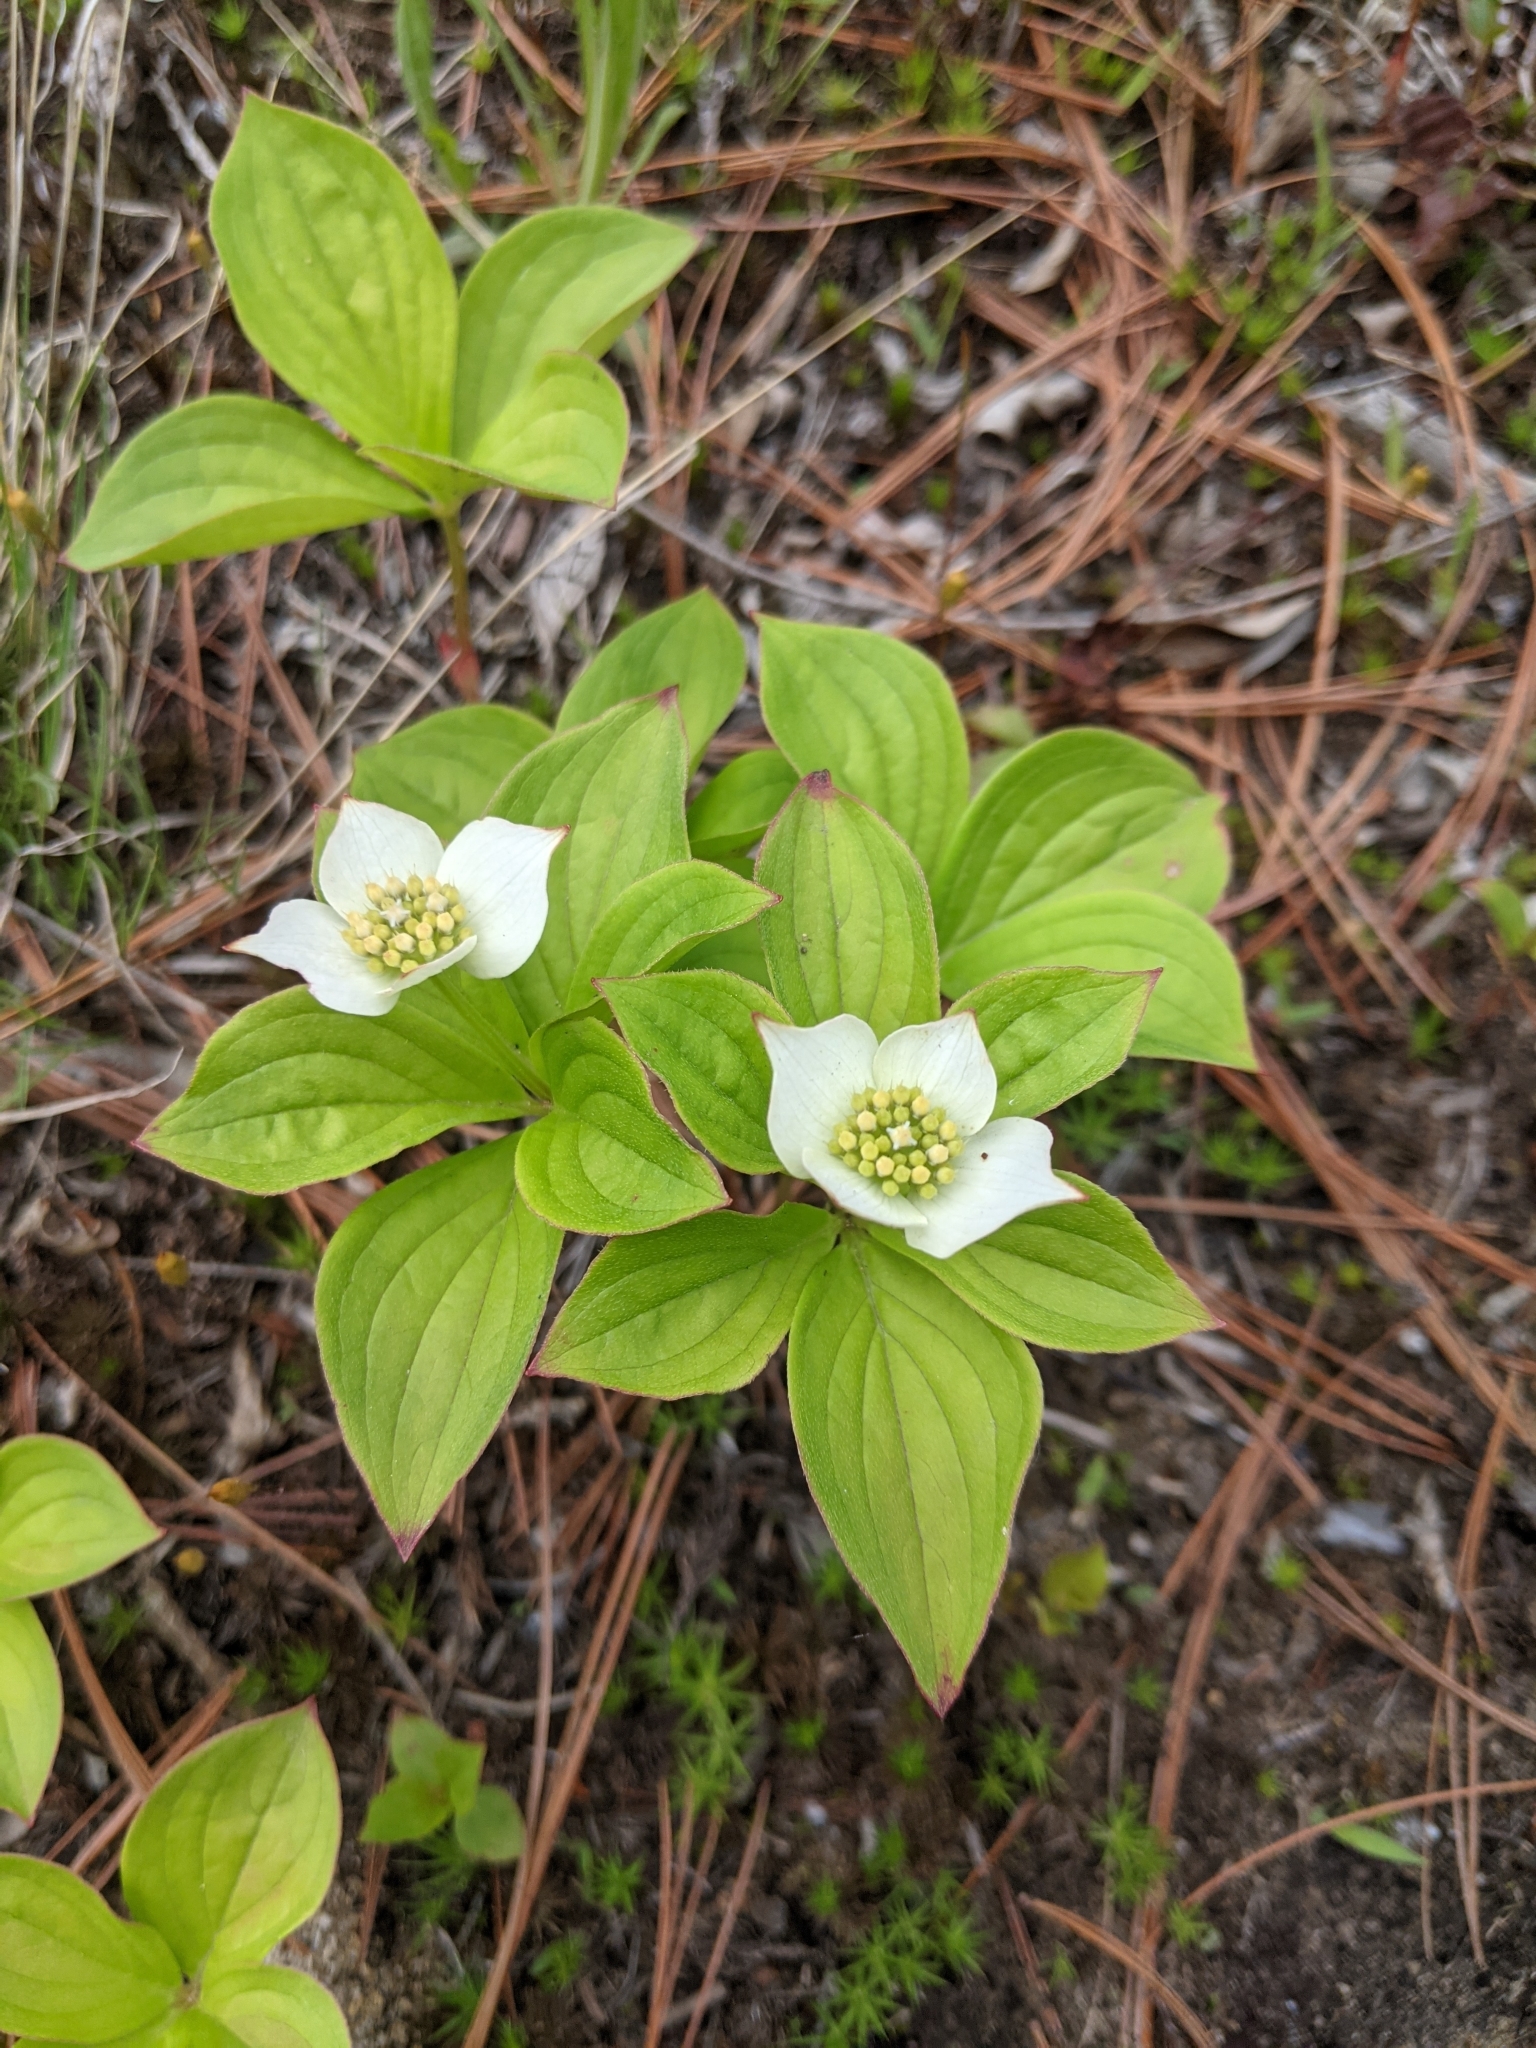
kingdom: Plantae
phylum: Tracheophyta
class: Magnoliopsida
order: Cornales
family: Cornaceae
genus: Cornus
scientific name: Cornus canadensis
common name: Creeping dogwood
